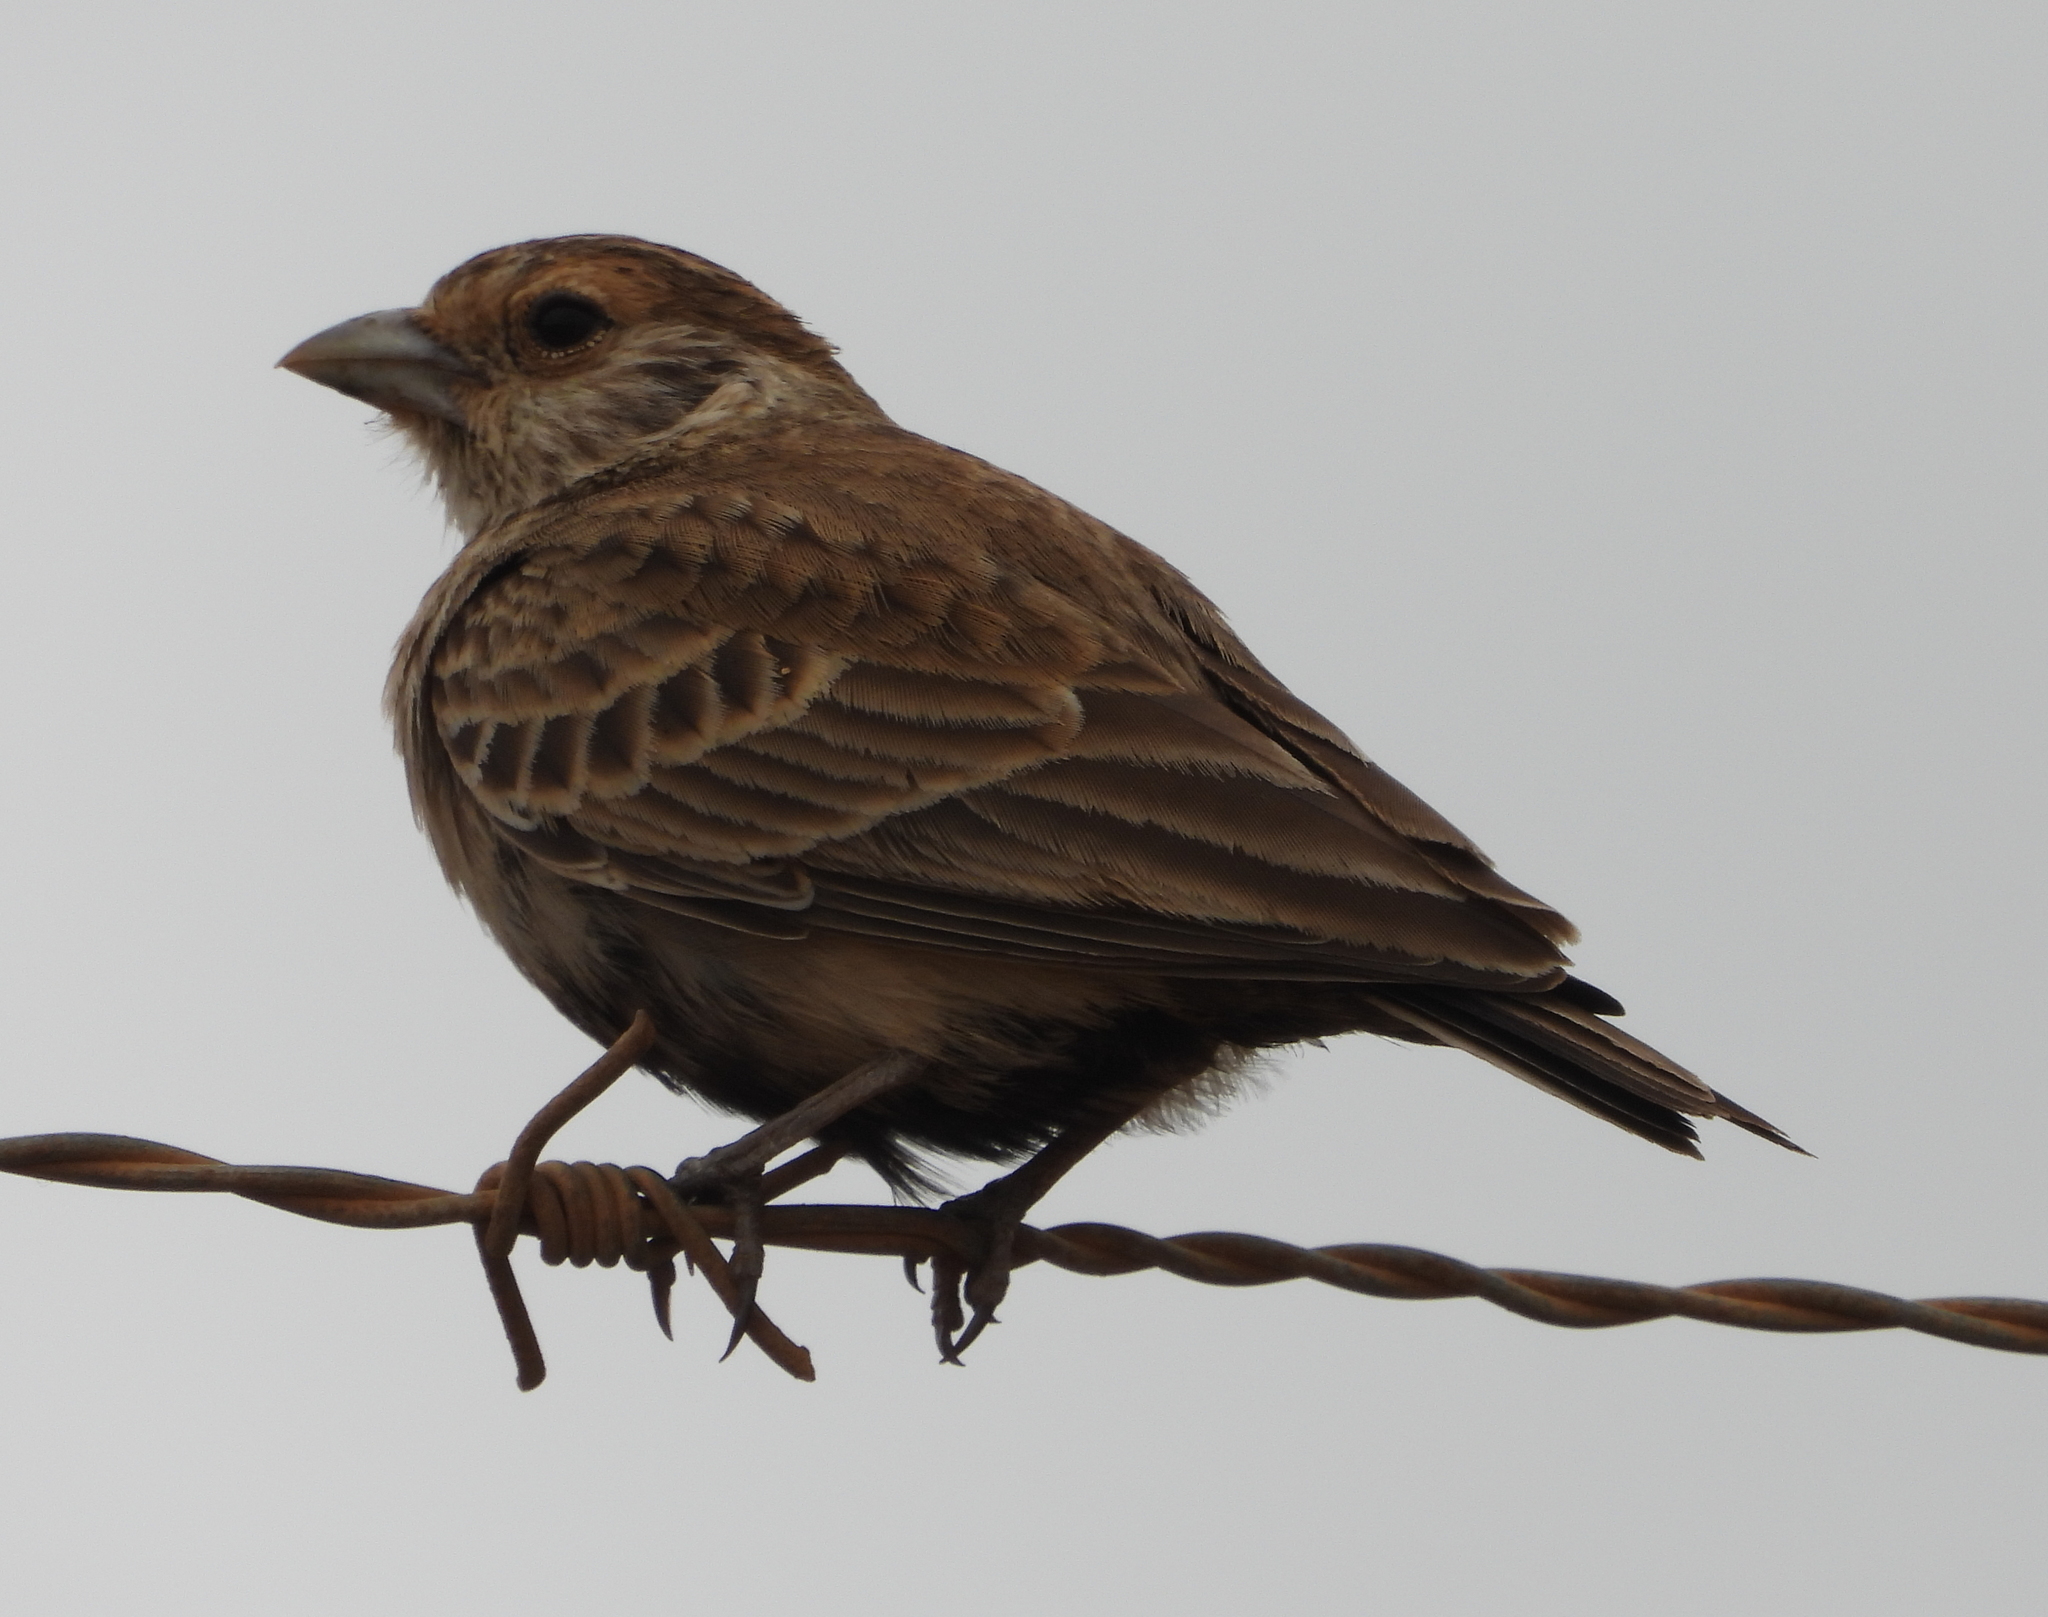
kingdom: Animalia
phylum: Chordata
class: Aves
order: Passeriformes
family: Alaudidae
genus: Eremopterix
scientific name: Eremopterix verticalis
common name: Grey-backed sparrow-lark
